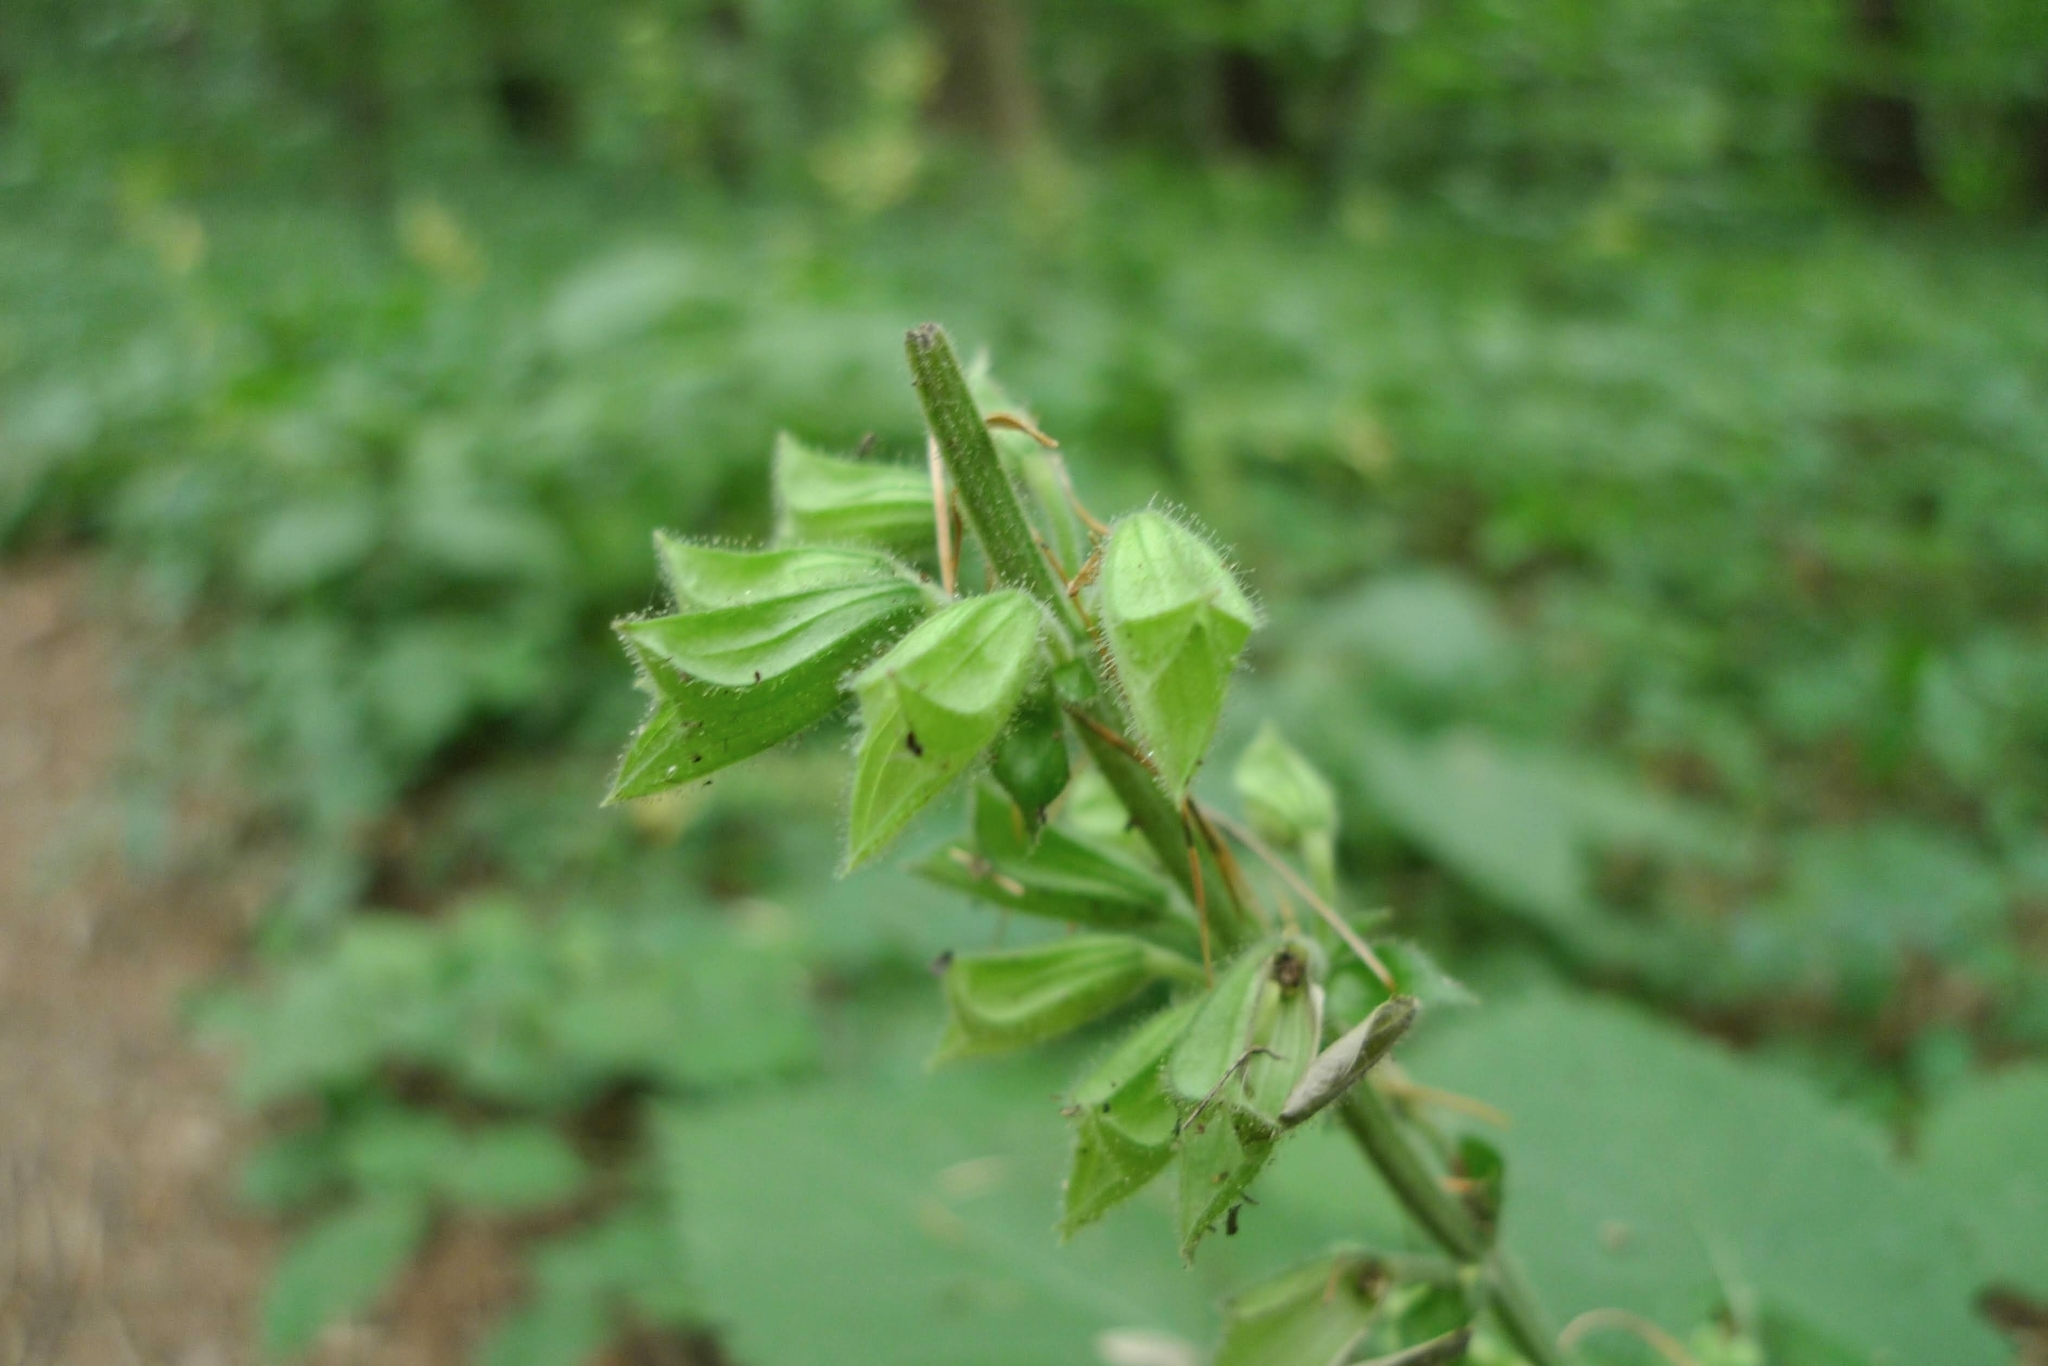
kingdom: Plantae
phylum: Tracheophyta
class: Magnoliopsida
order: Lamiales
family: Lamiaceae
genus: Salvia
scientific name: Salvia glutinosa
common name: Sticky clary
